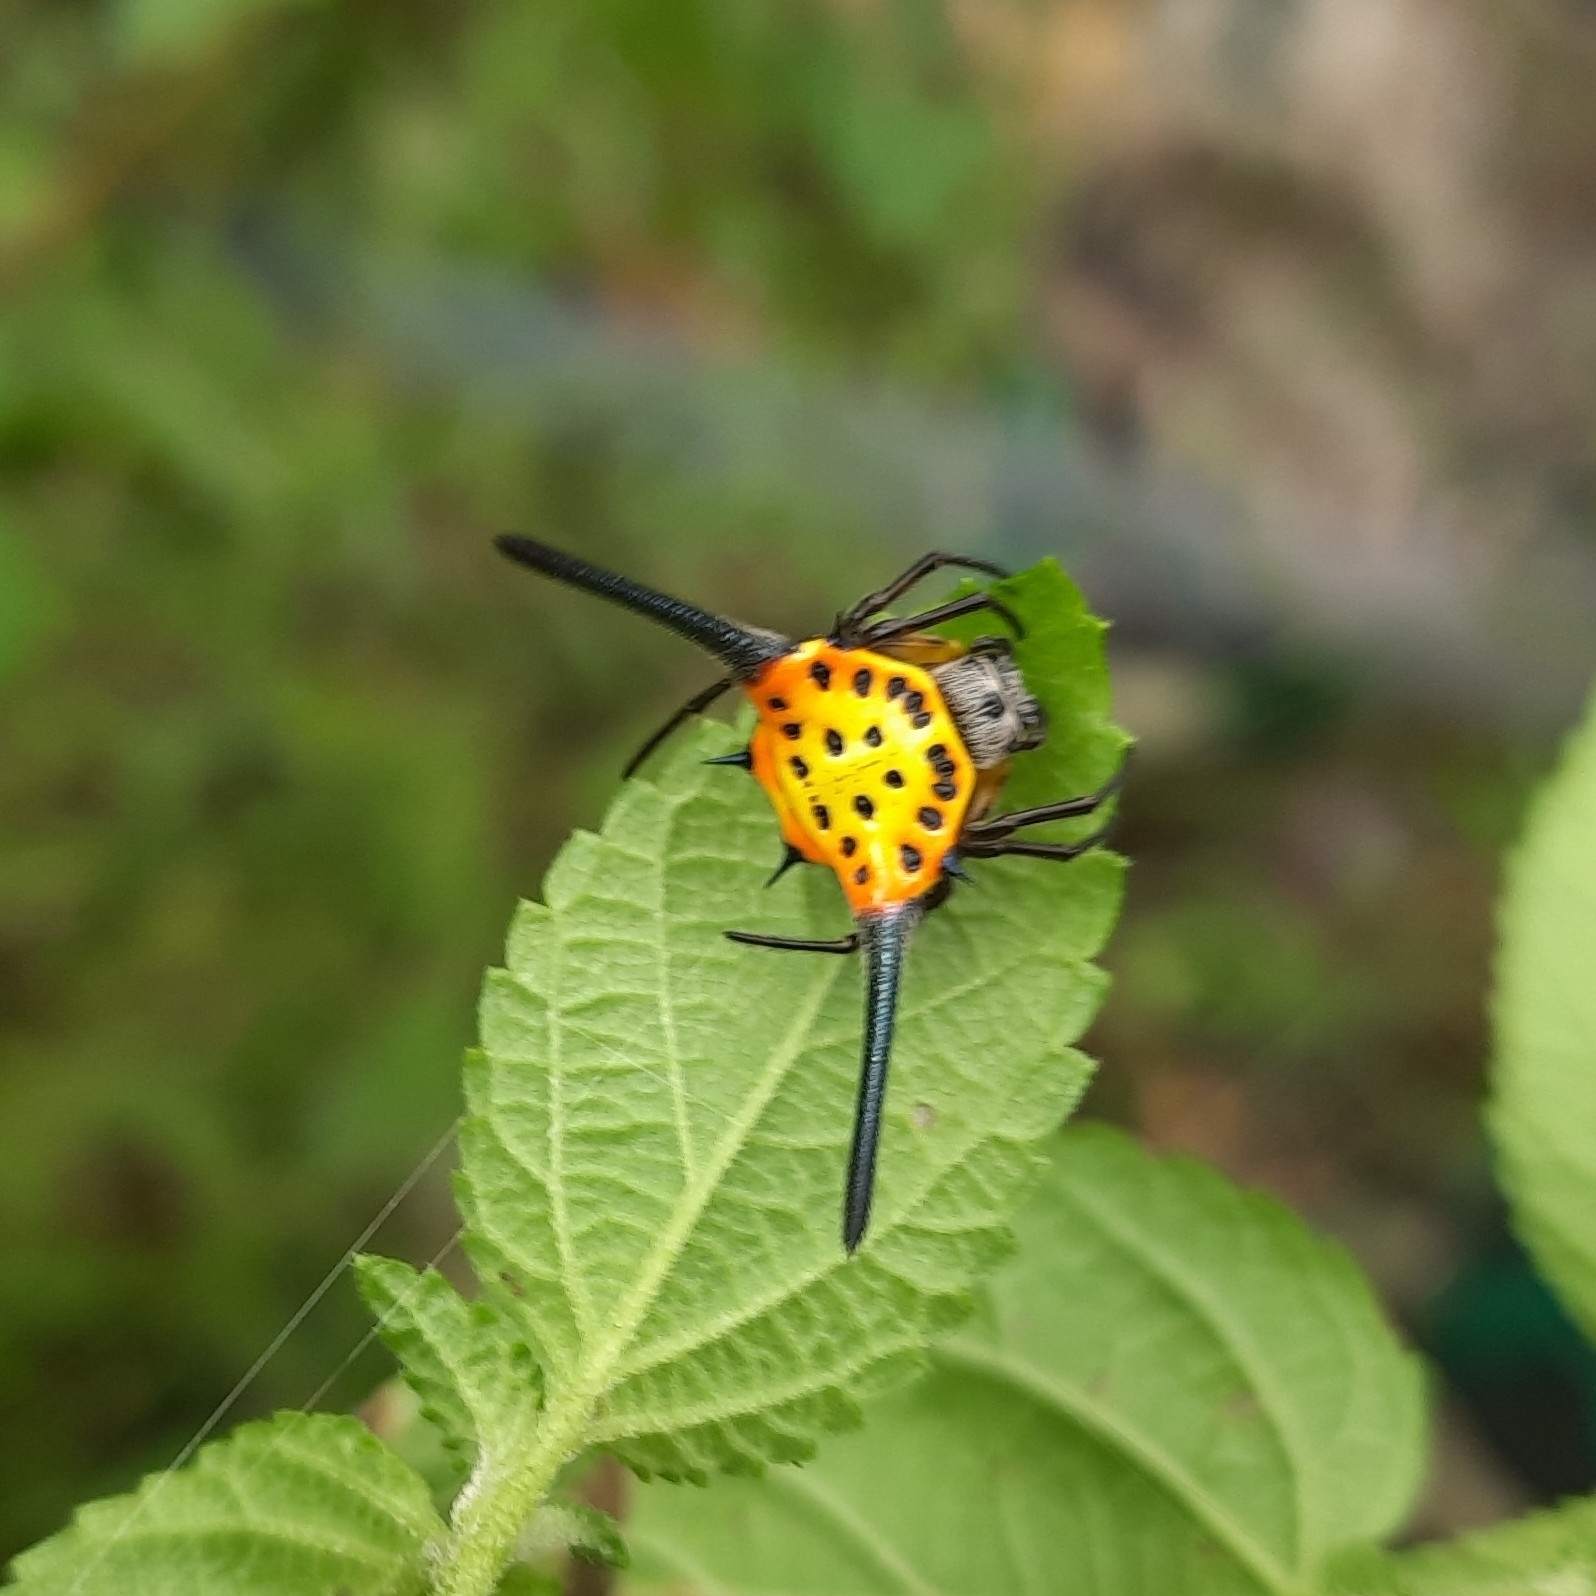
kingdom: Animalia
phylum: Arthropoda
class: Arachnida
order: Araneae
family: Araneidae
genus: Gasteracantha
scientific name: Gasteracantha dalyi
